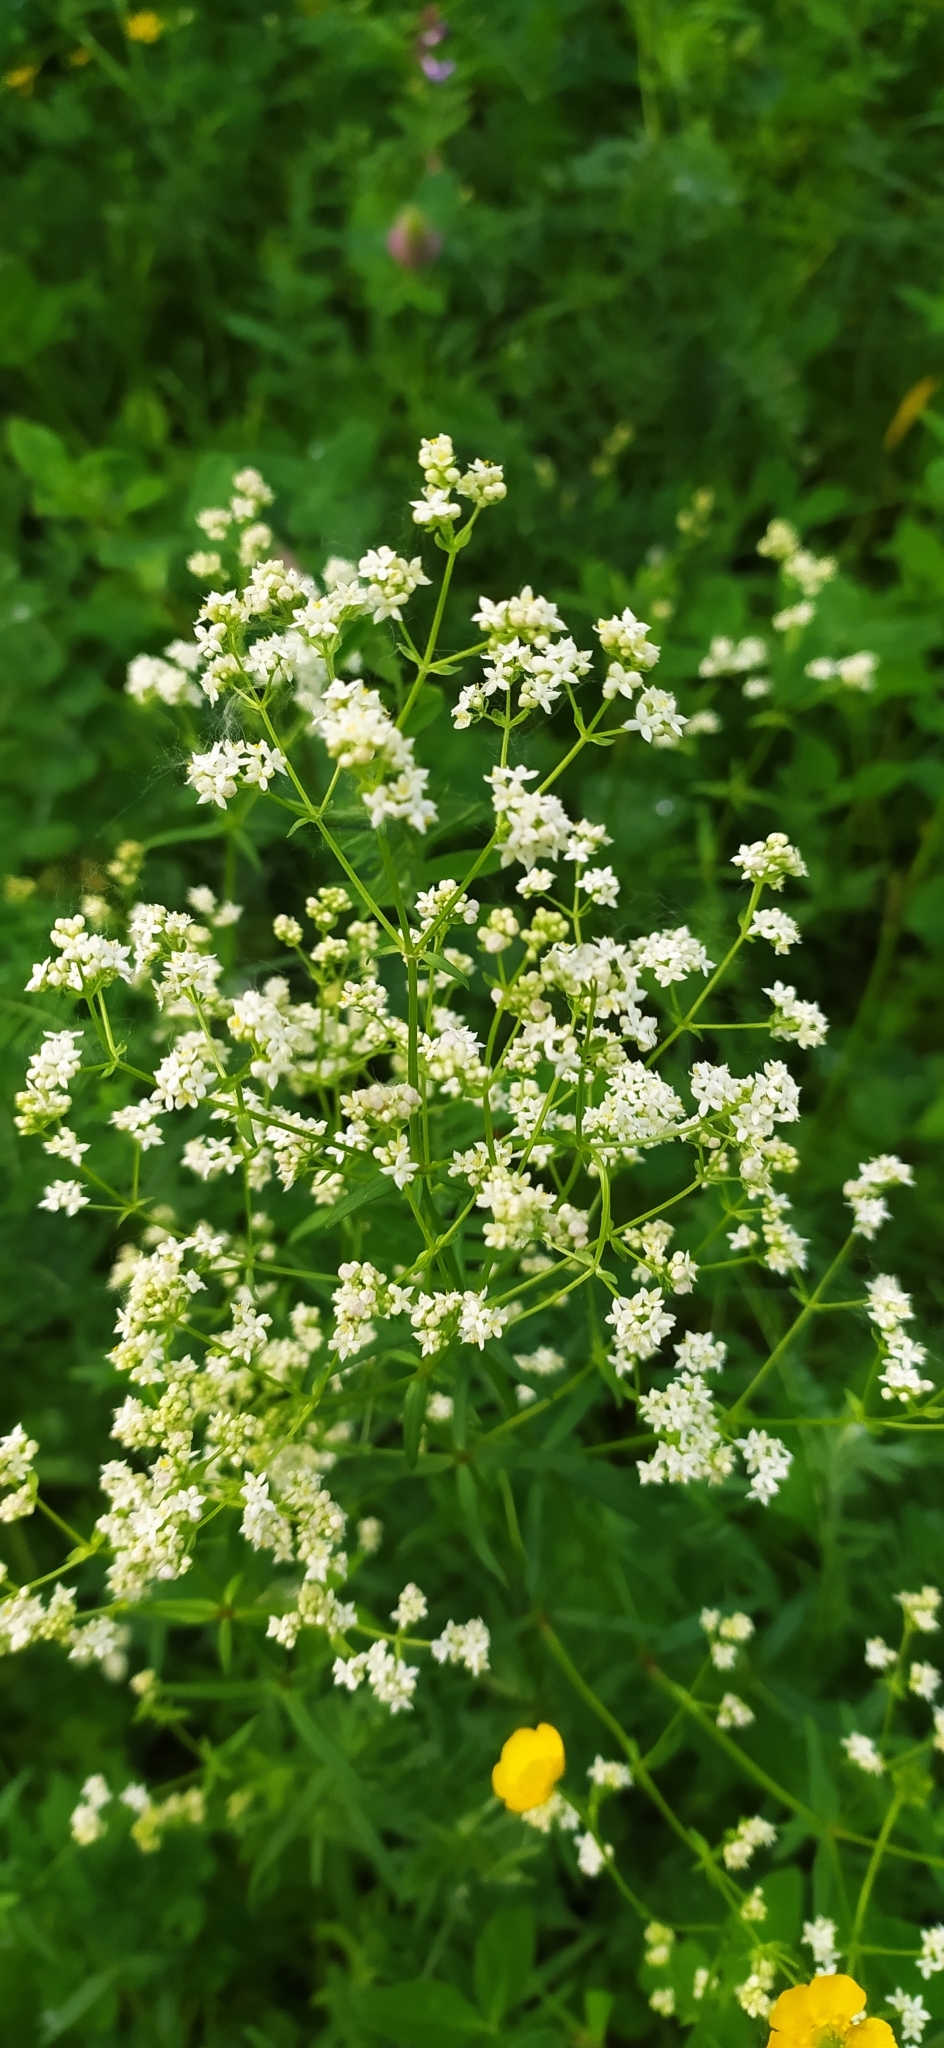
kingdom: Plantae
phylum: Tracheophyta
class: Magnoliopsida
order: Gentianales
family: Rubiaceae
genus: Galium
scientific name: Galium boreale
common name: Northern bedstraw
